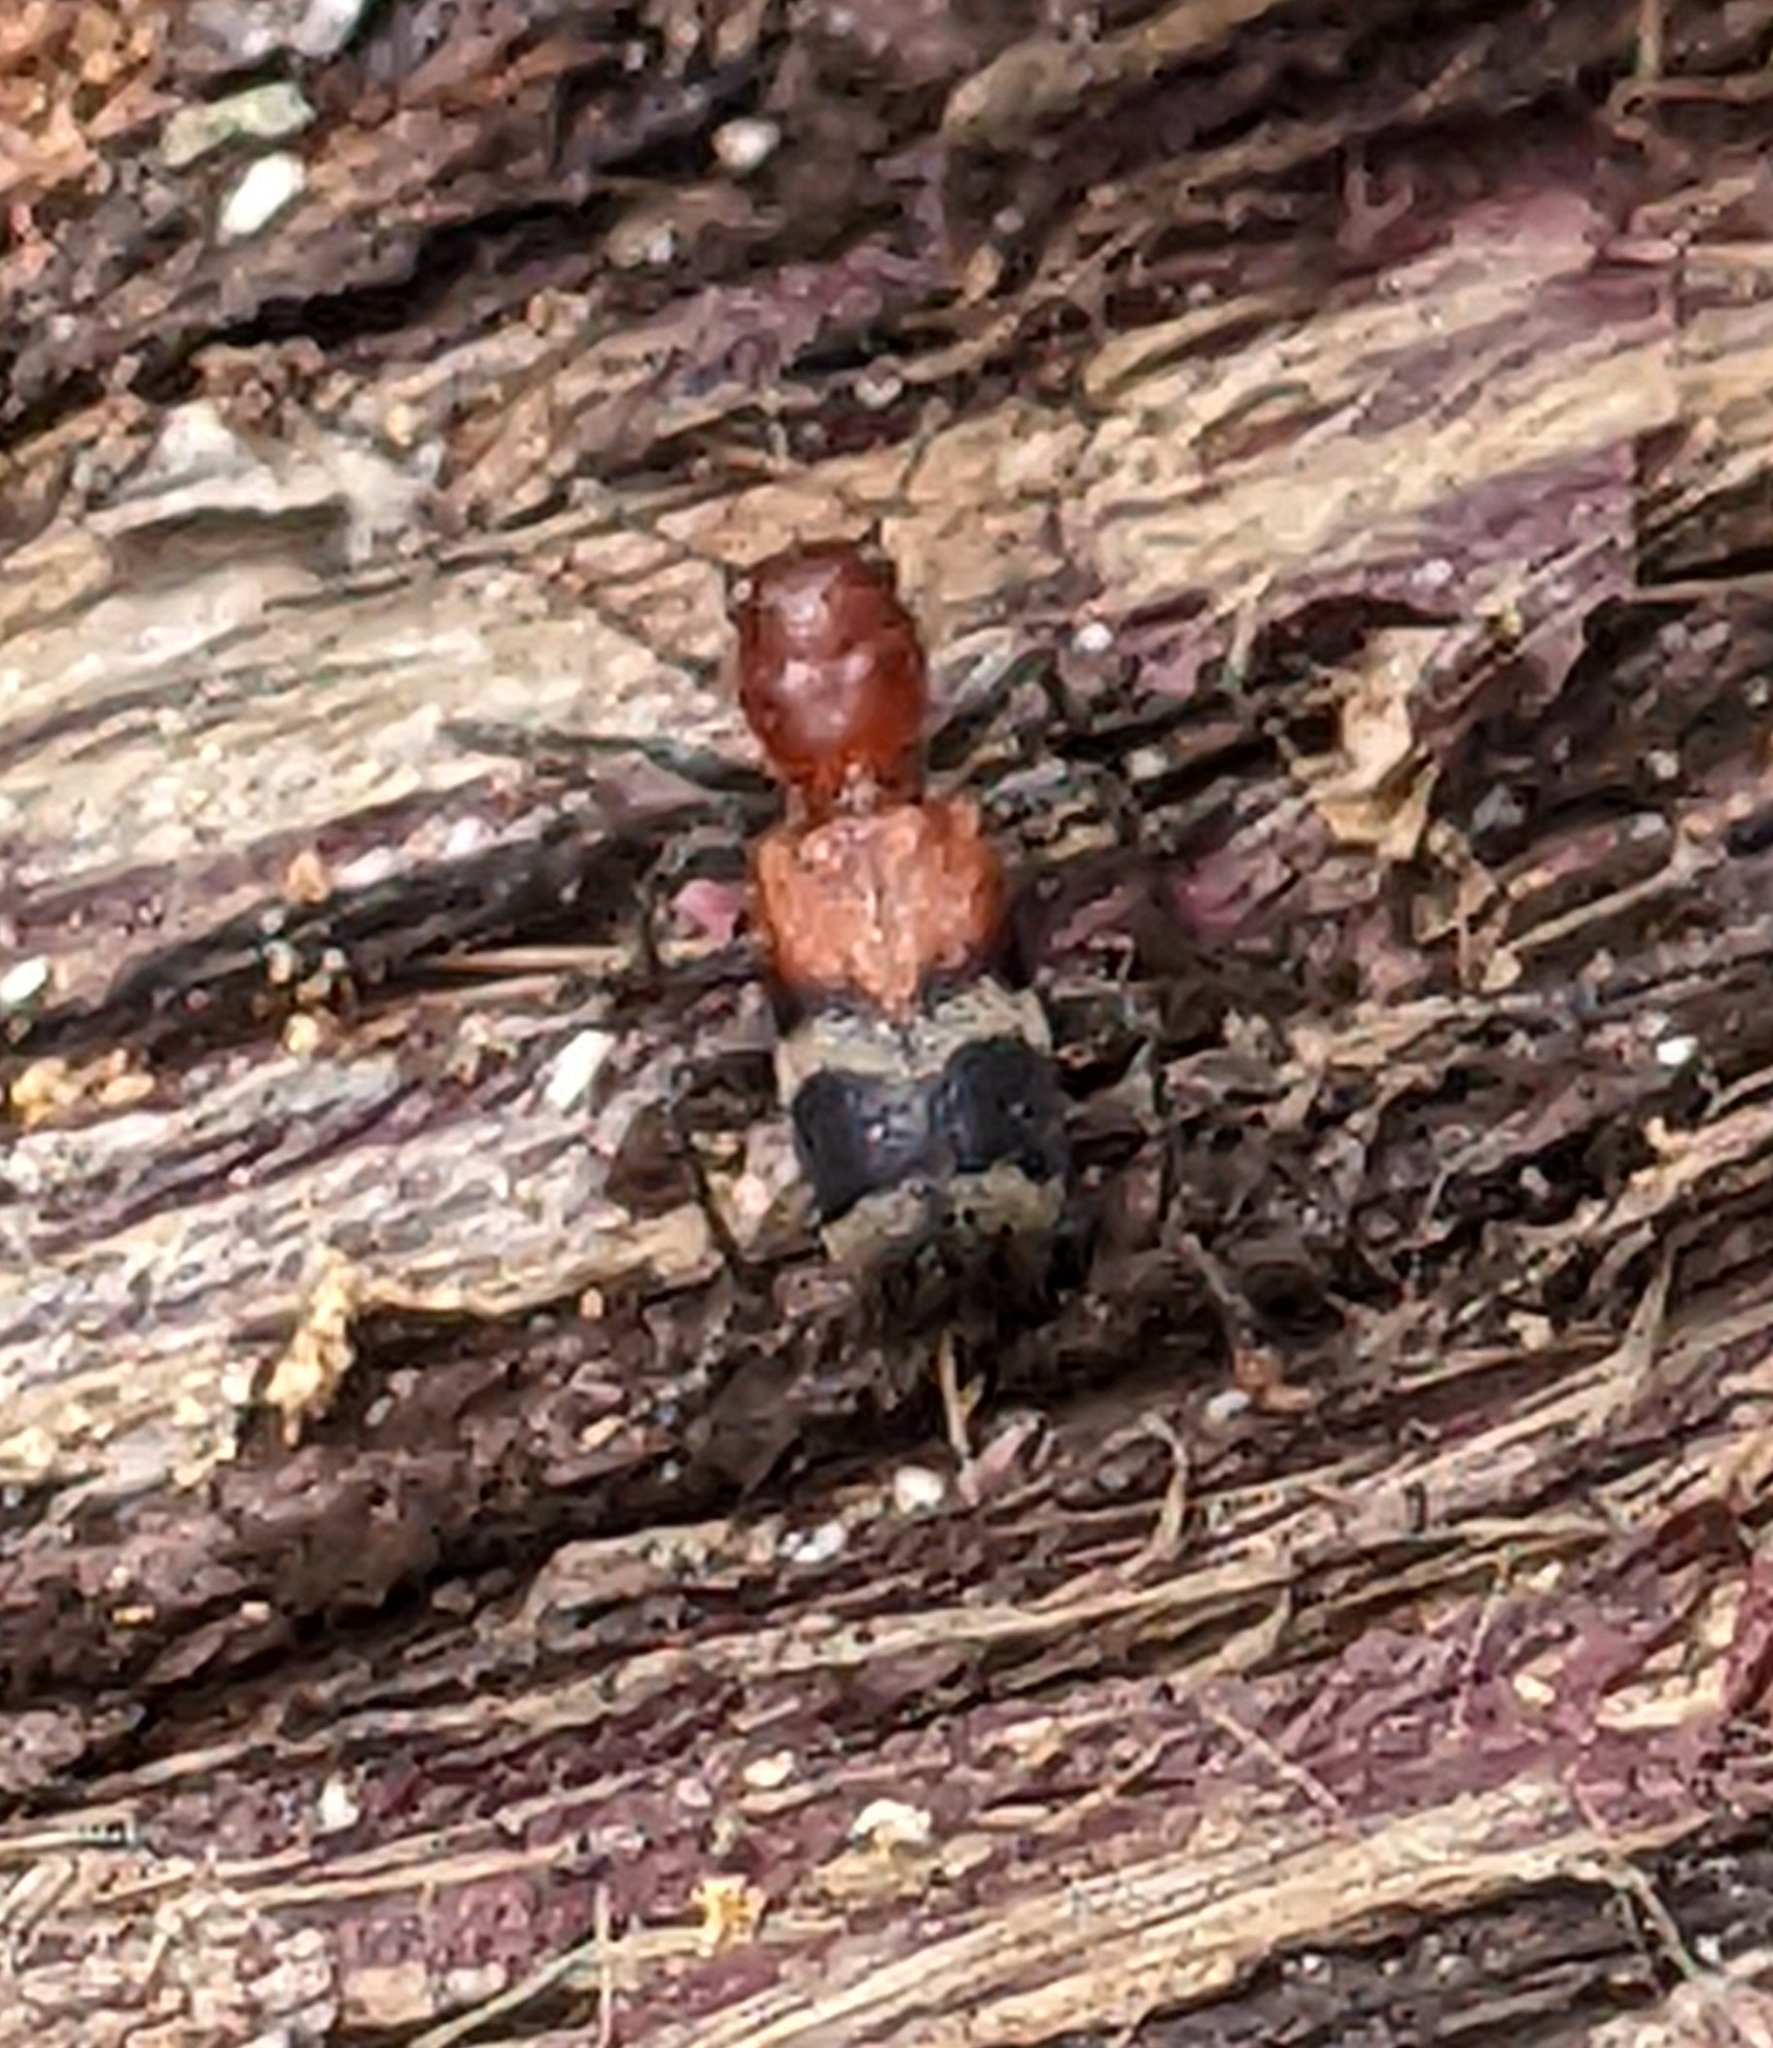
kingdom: Animalia
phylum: Arthropoda
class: Insecta
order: Coleoptera
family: Cleridae
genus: Enoclerus
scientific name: Enoclerus nigripes
